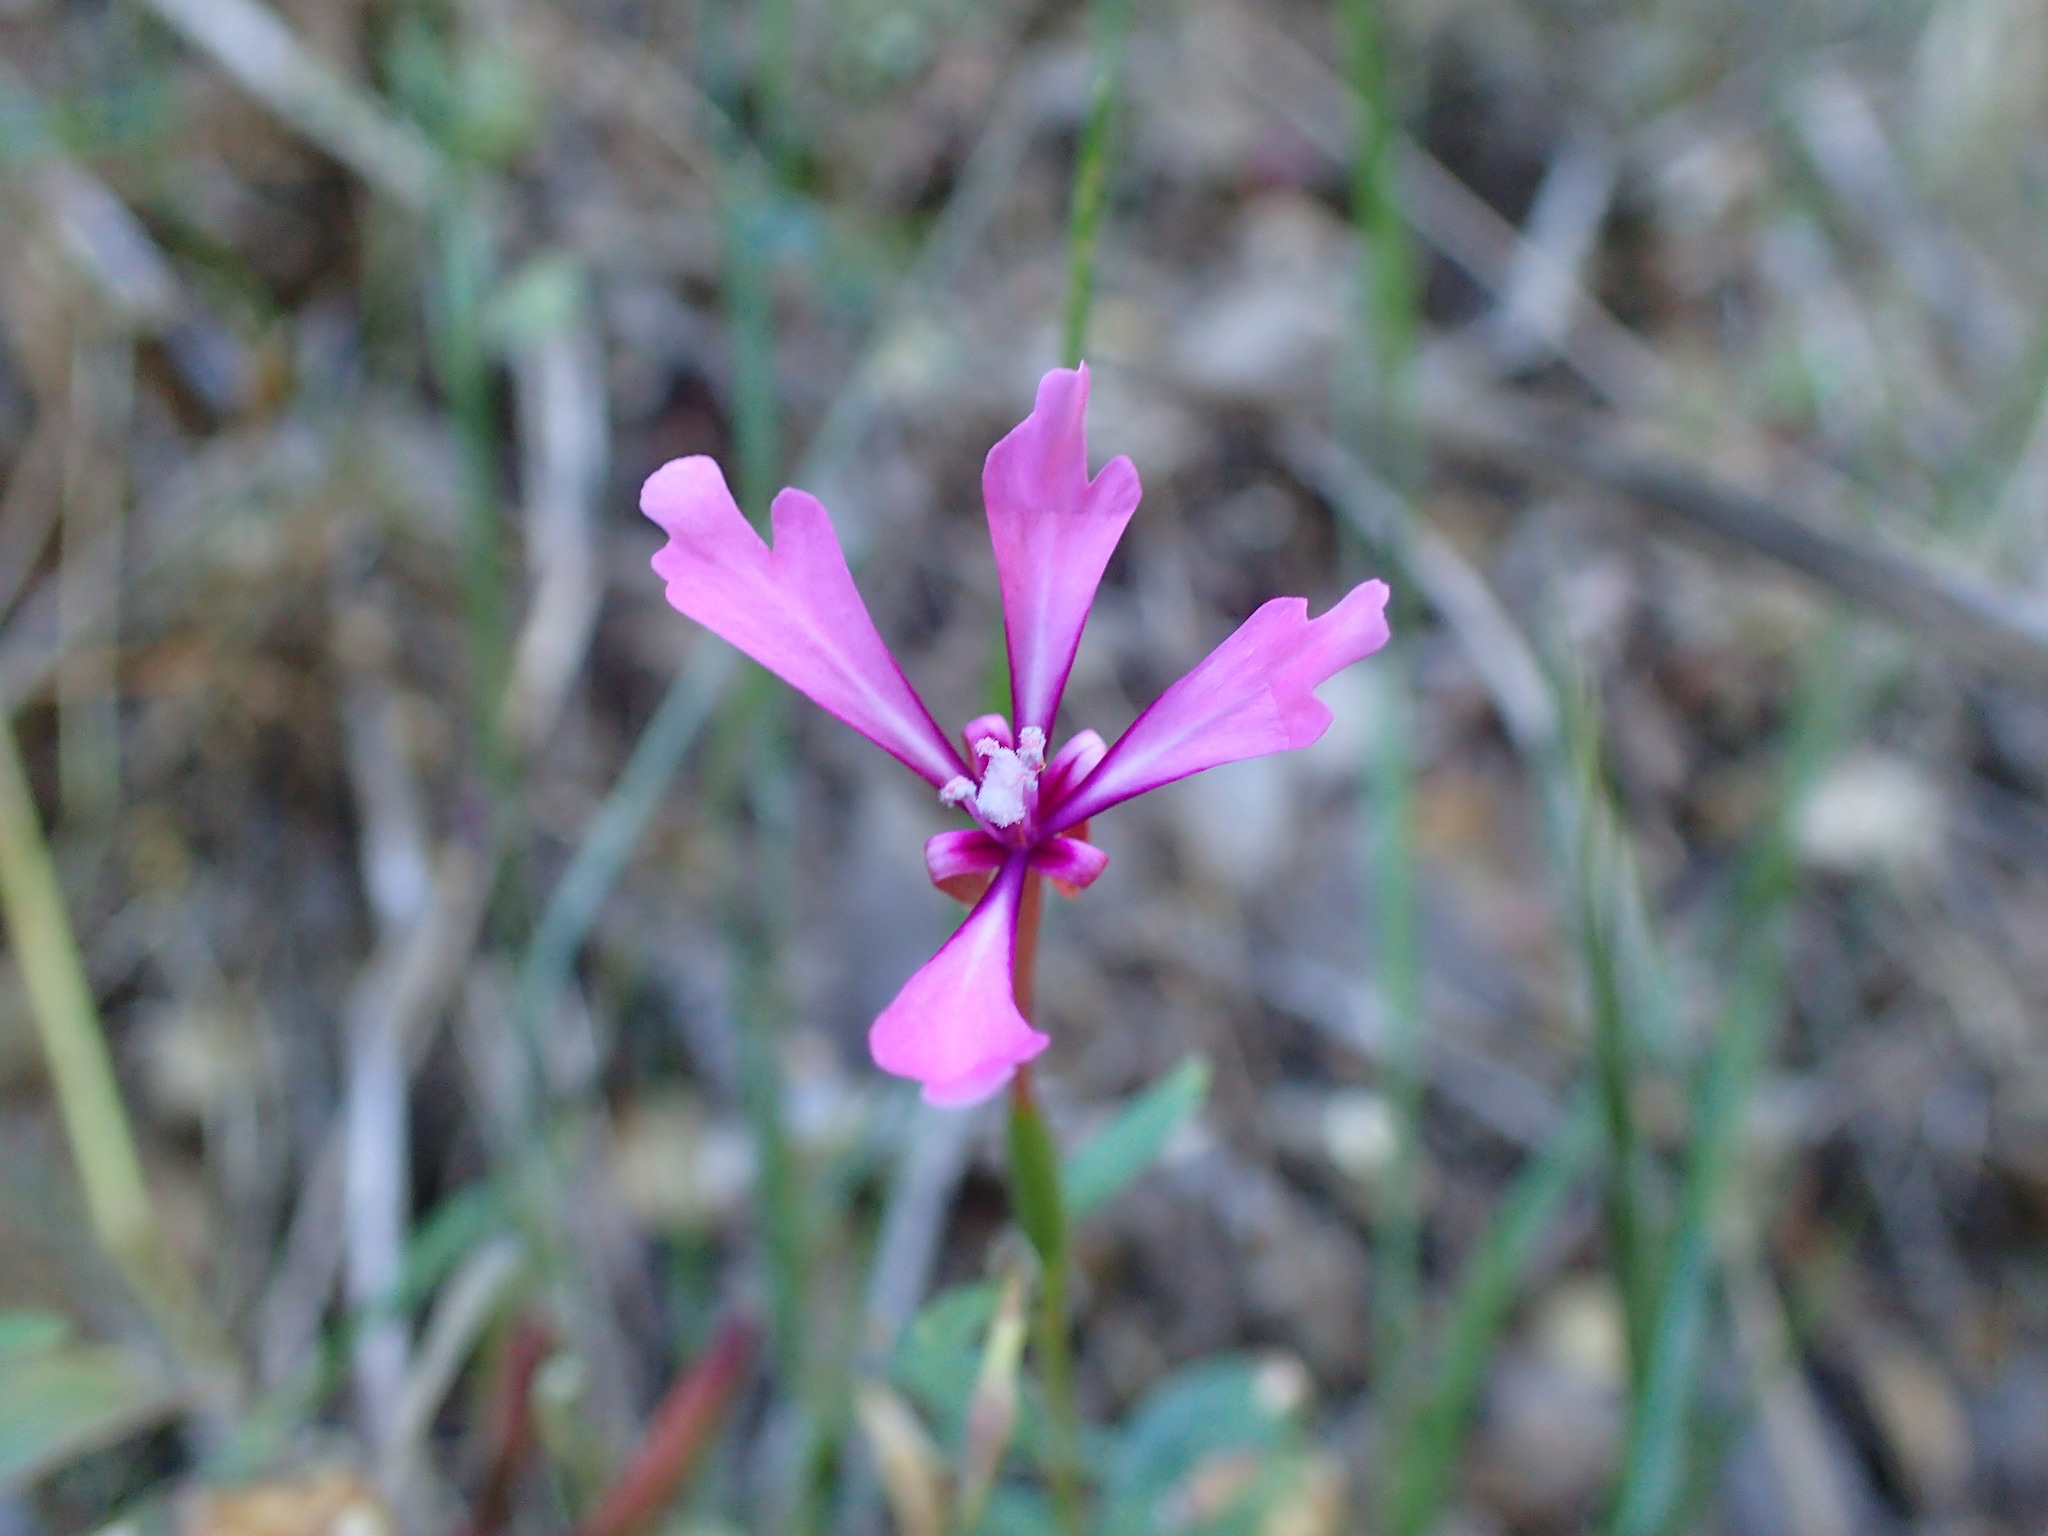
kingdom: Plantae
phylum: Tracheophyta
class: Magnoliopsida
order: Myrtales
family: Onagraceae
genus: Clarkia
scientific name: Clarkia concinna
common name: Red-ribbons
